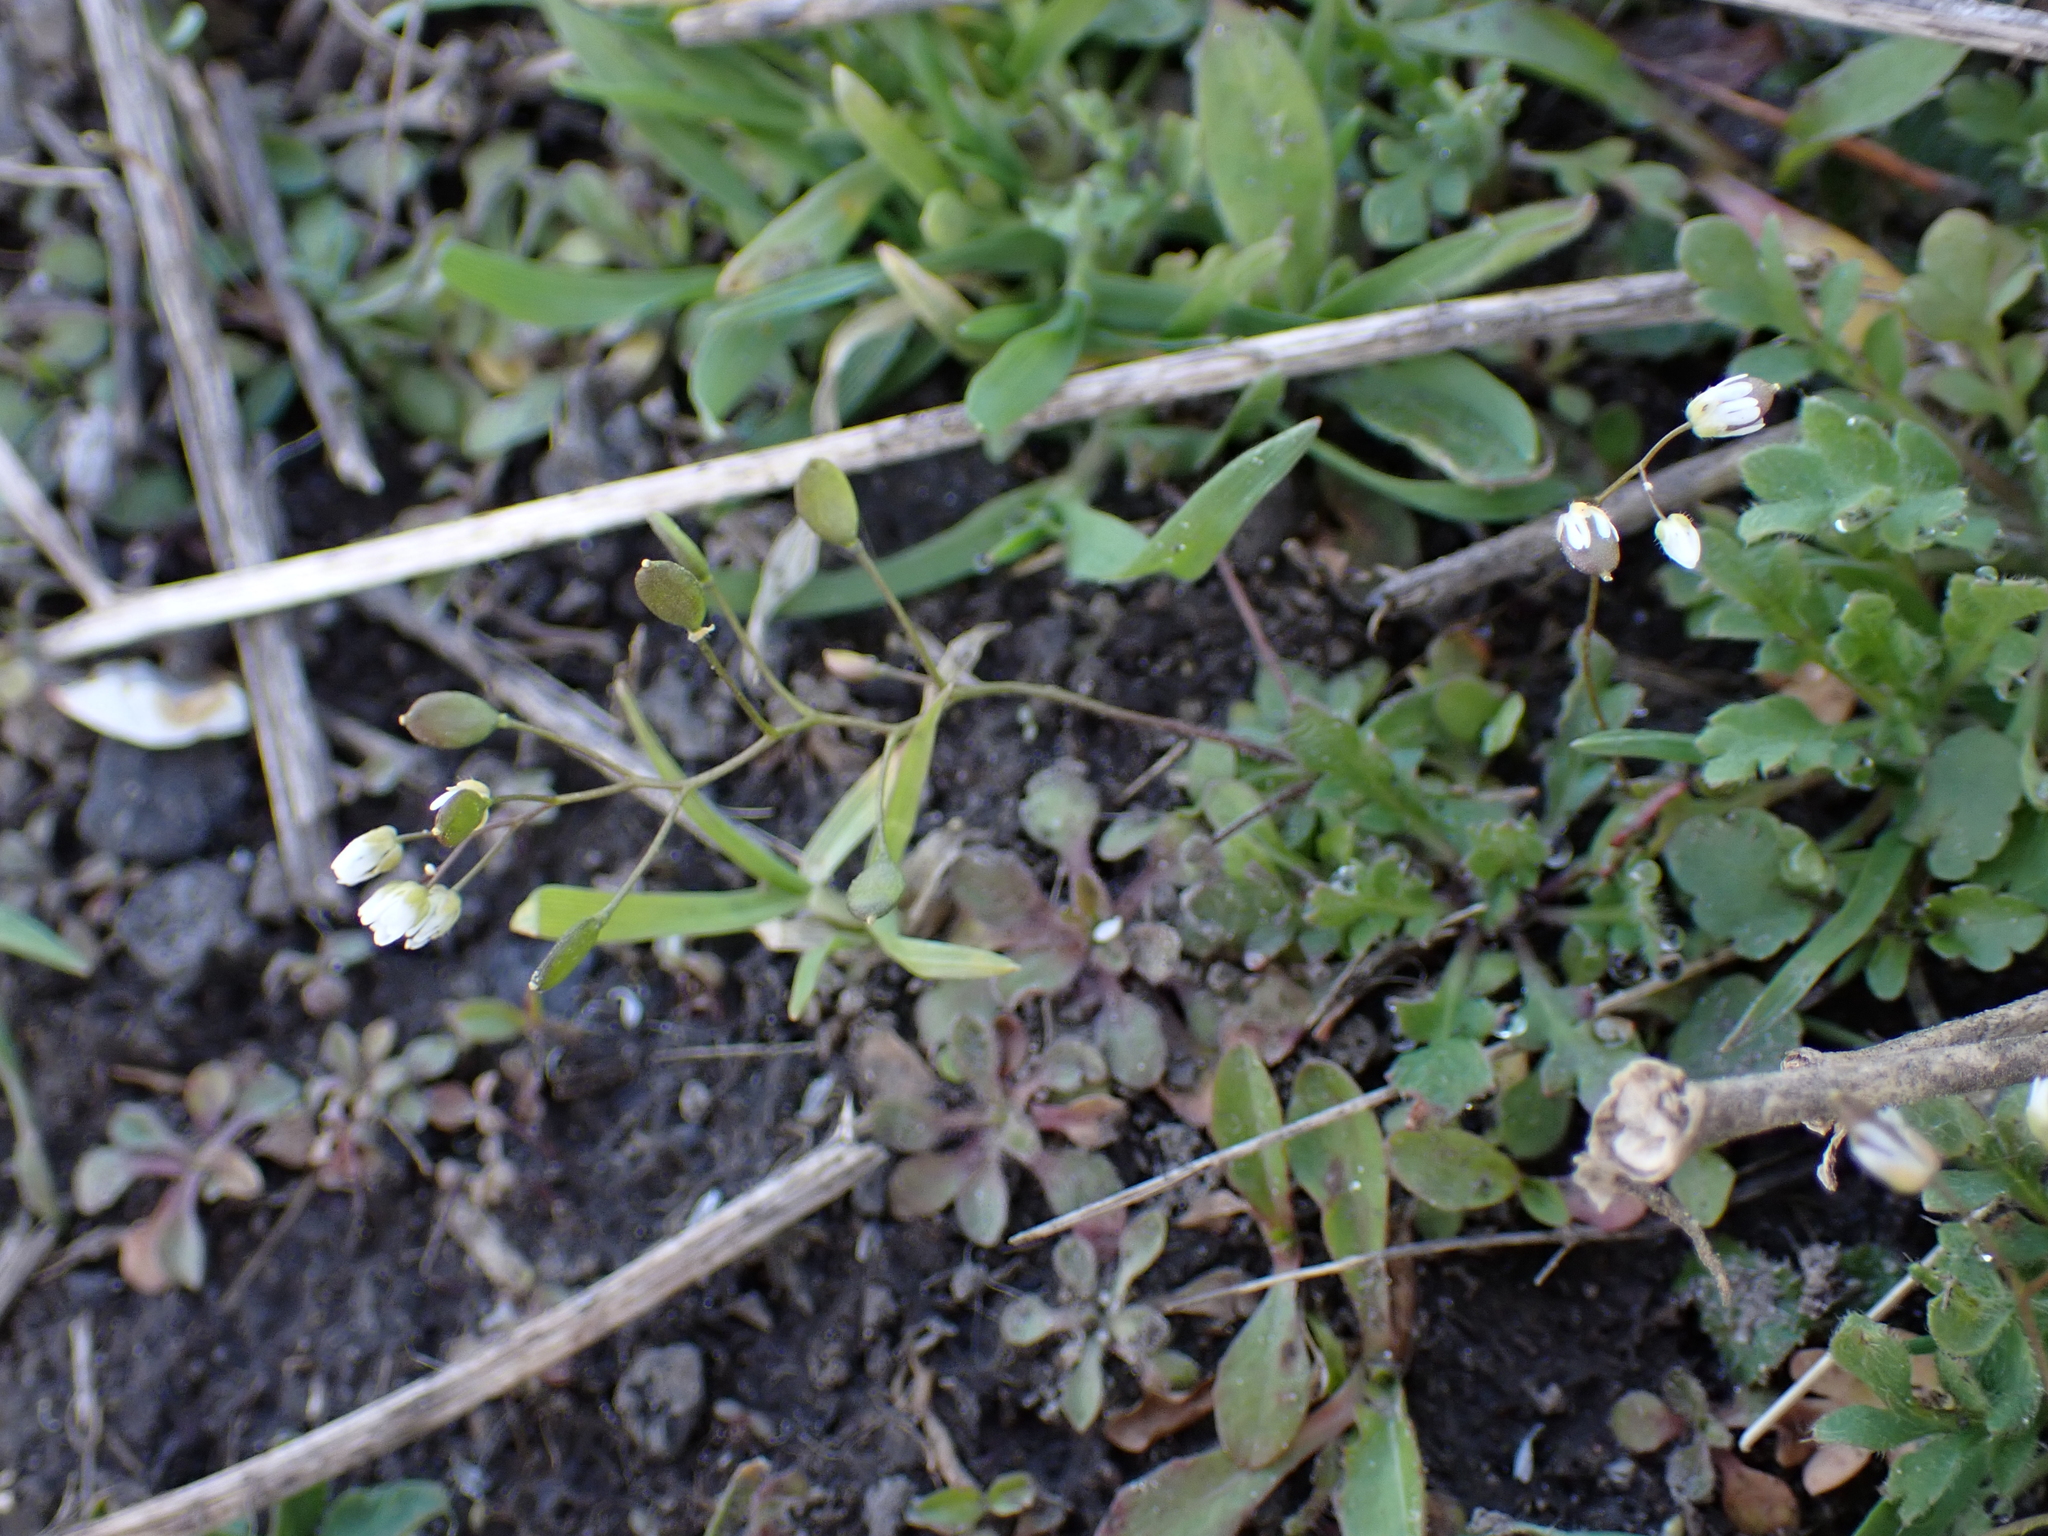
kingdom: Plantae
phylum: Tracheophyta
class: Magnoliopsida
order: Brassicales
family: Brassicaceae
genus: Draba
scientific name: Draba verna
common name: Spring draba
